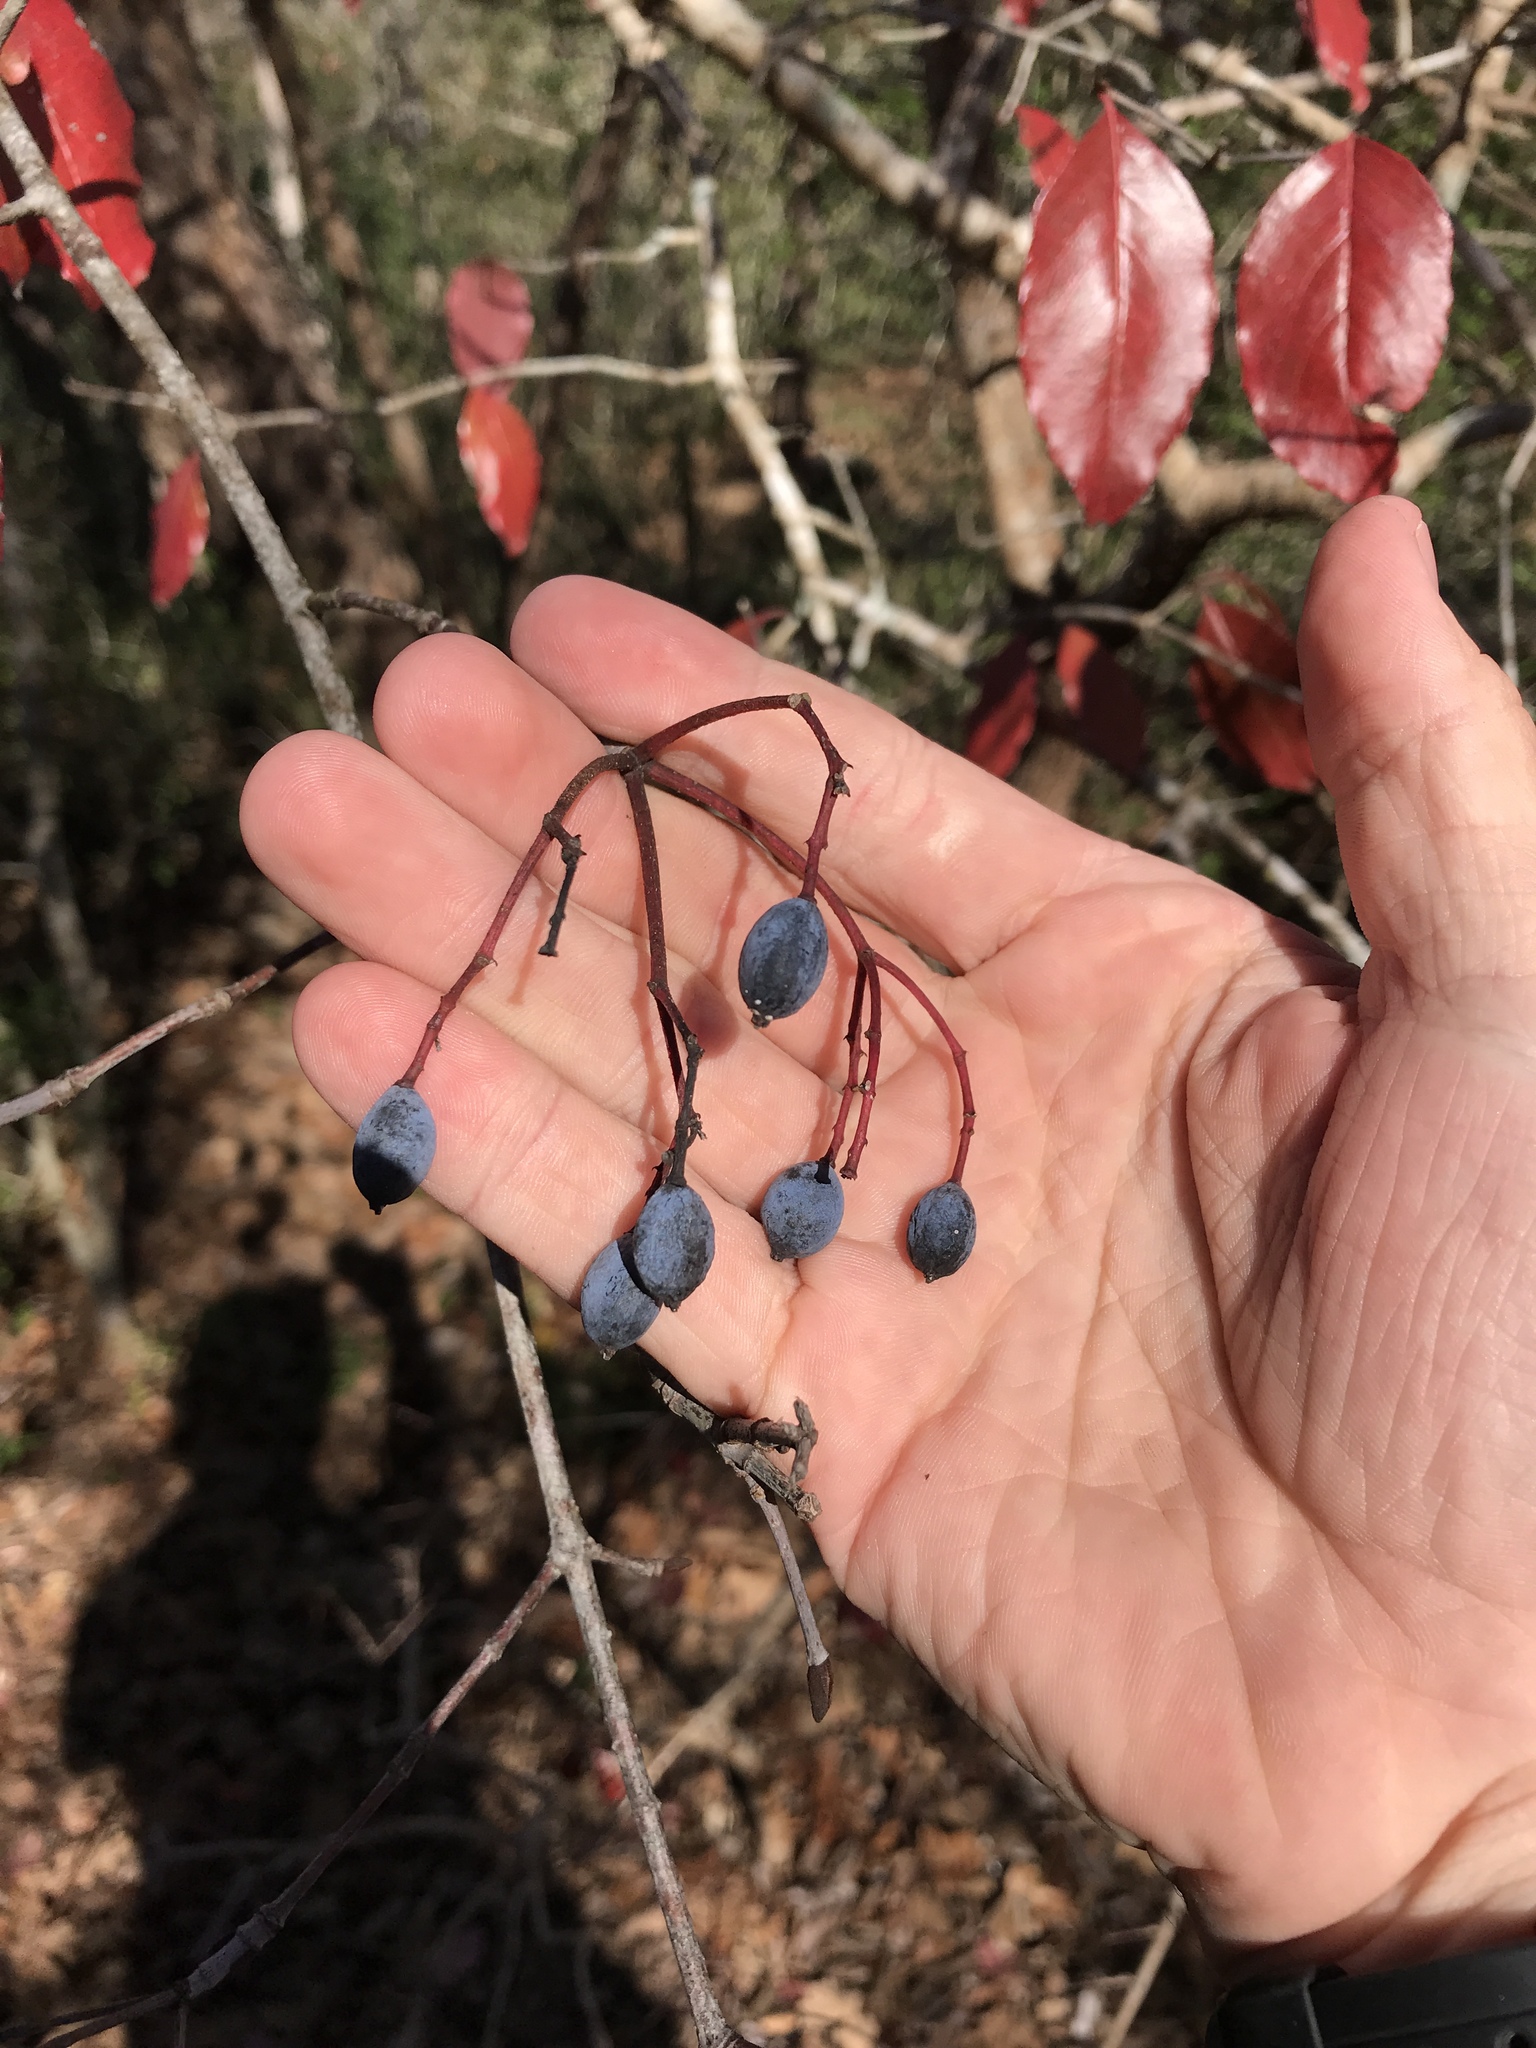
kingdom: Plantae
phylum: Tracheophyta
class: Magnoliopsida
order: Dipsacales
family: Viburnaceae
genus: Viburnum
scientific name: Viburnum rufidulum
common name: Blue haw
